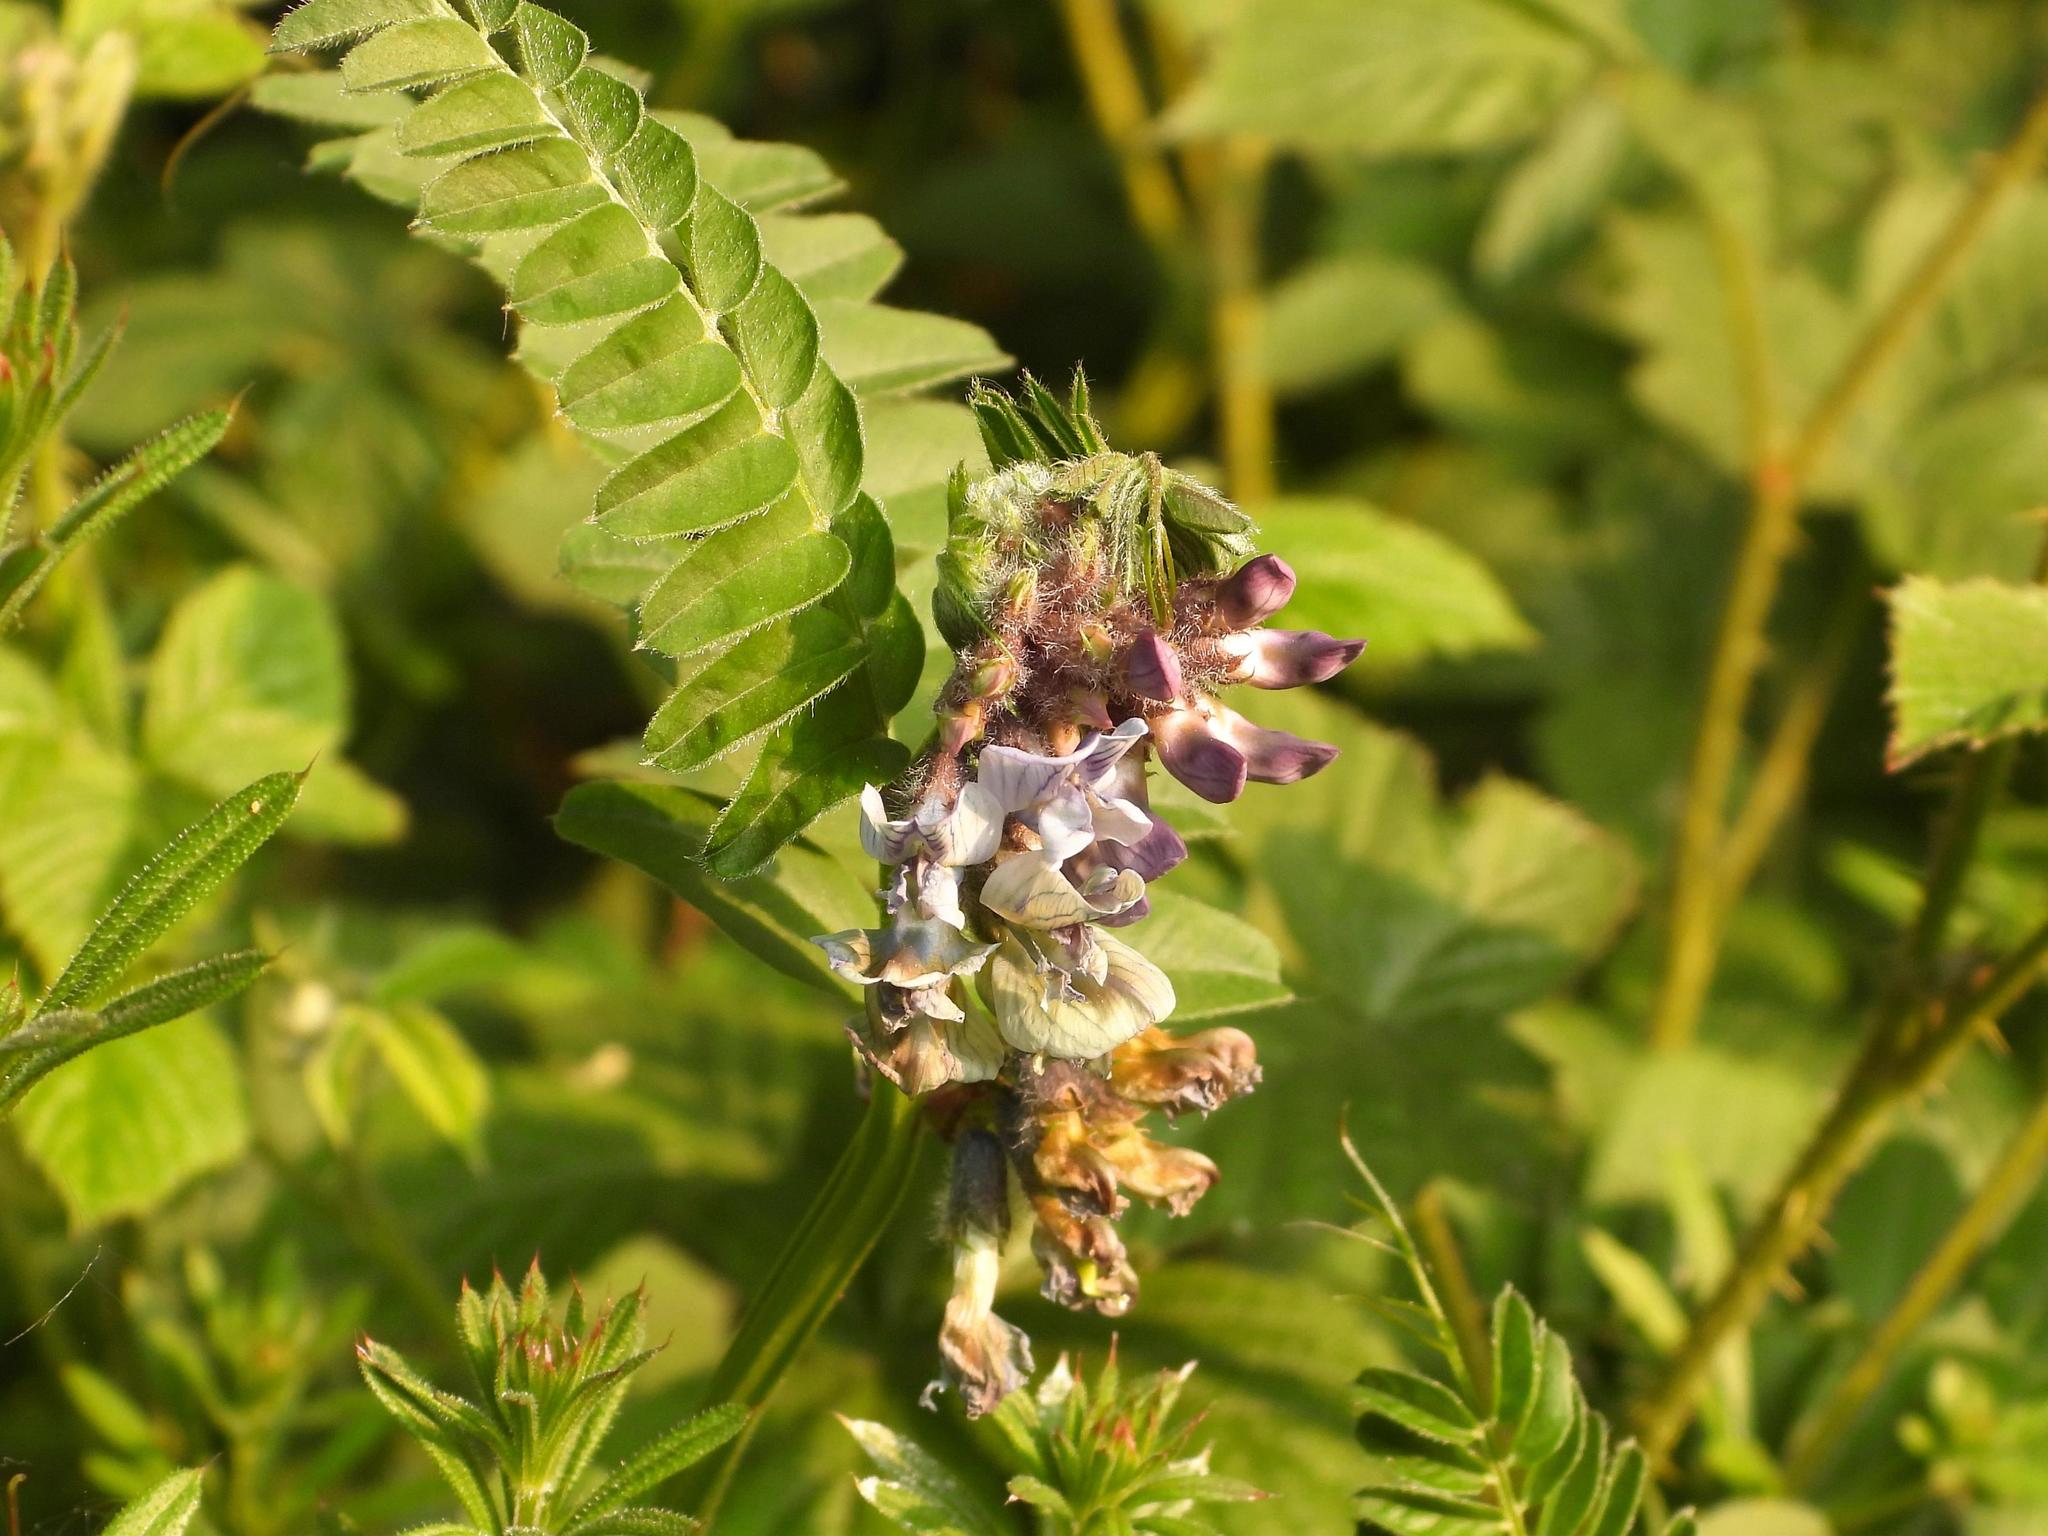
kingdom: Plantae
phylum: Tracheophyta
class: Magnoliopsida
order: Fabales
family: Fabaceae
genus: Vicia
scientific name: Vicia sepium
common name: Bush vetch
